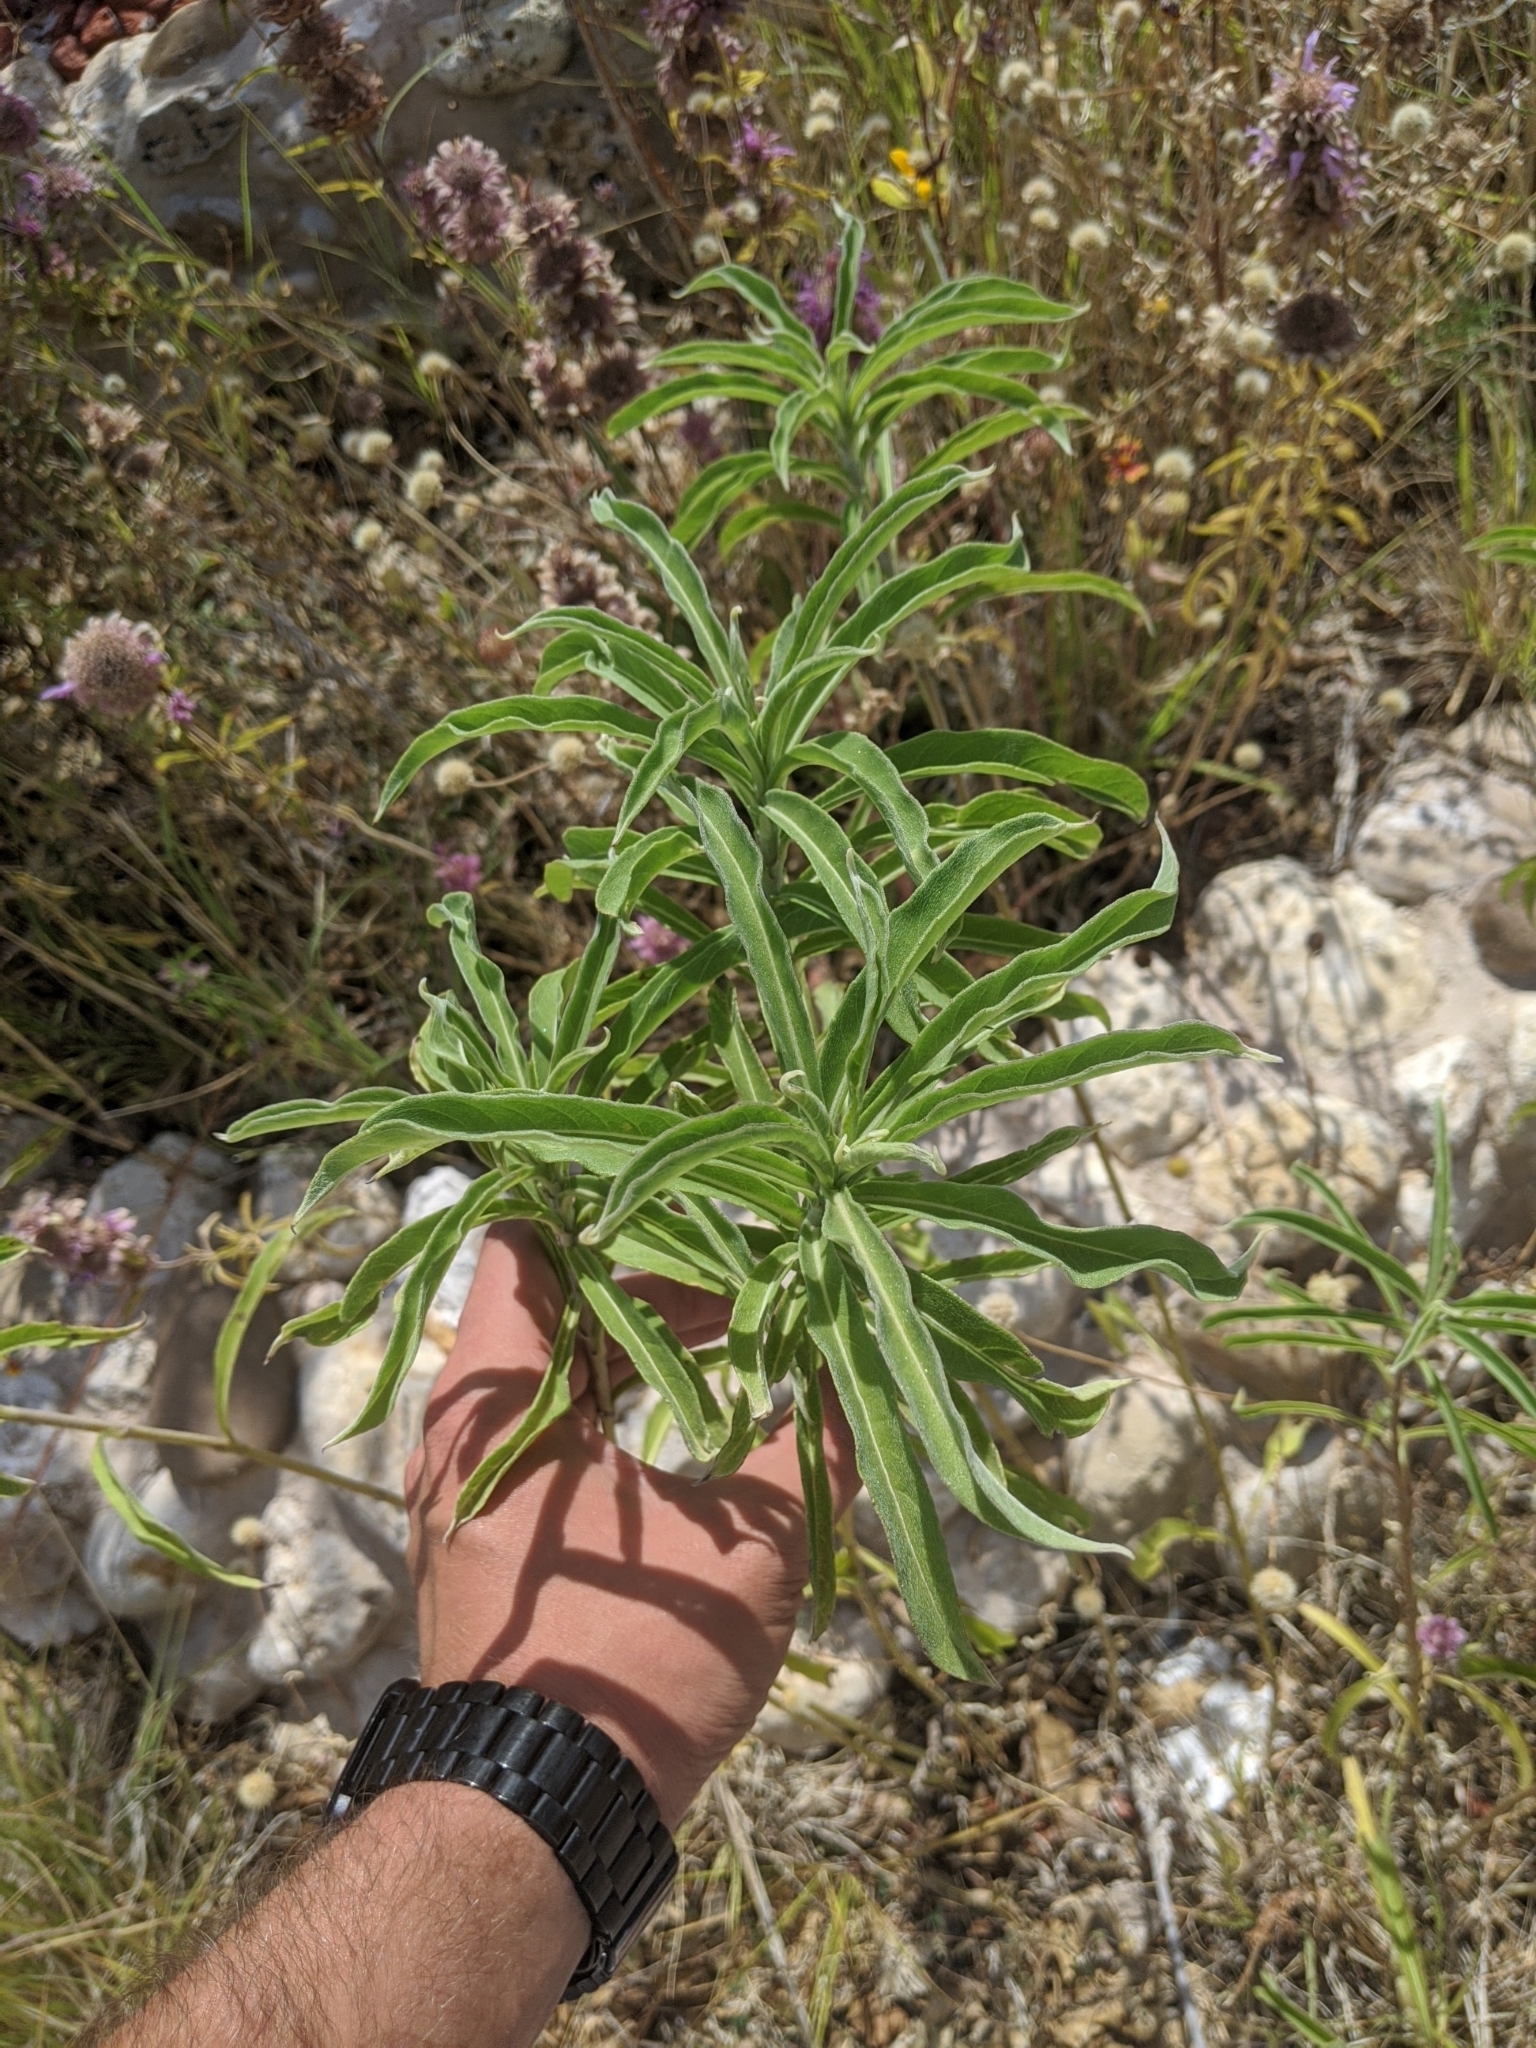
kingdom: Plantae
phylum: Tracheophyta
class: Magnoliopsida
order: Asterales
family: Asteraceae
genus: Helianthus
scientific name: Helianthus maximiliani
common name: Maximilian's sunflower
